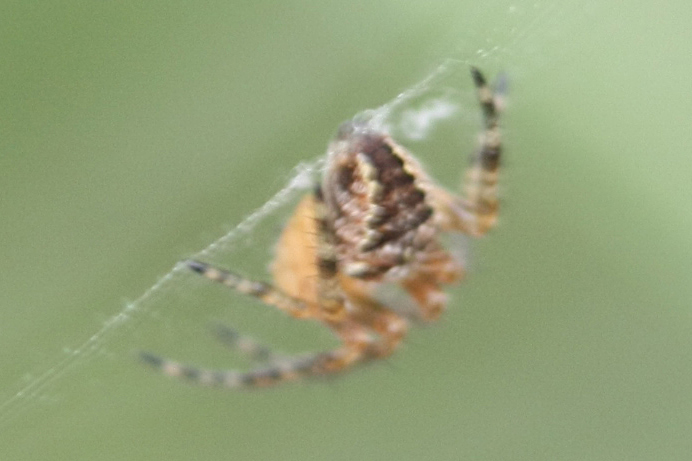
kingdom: Animalia
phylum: Arthropoda
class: Arachnida
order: Araneae
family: Araneidae
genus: Araneus
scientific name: Araneus diadematus
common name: Cross orbweaver
